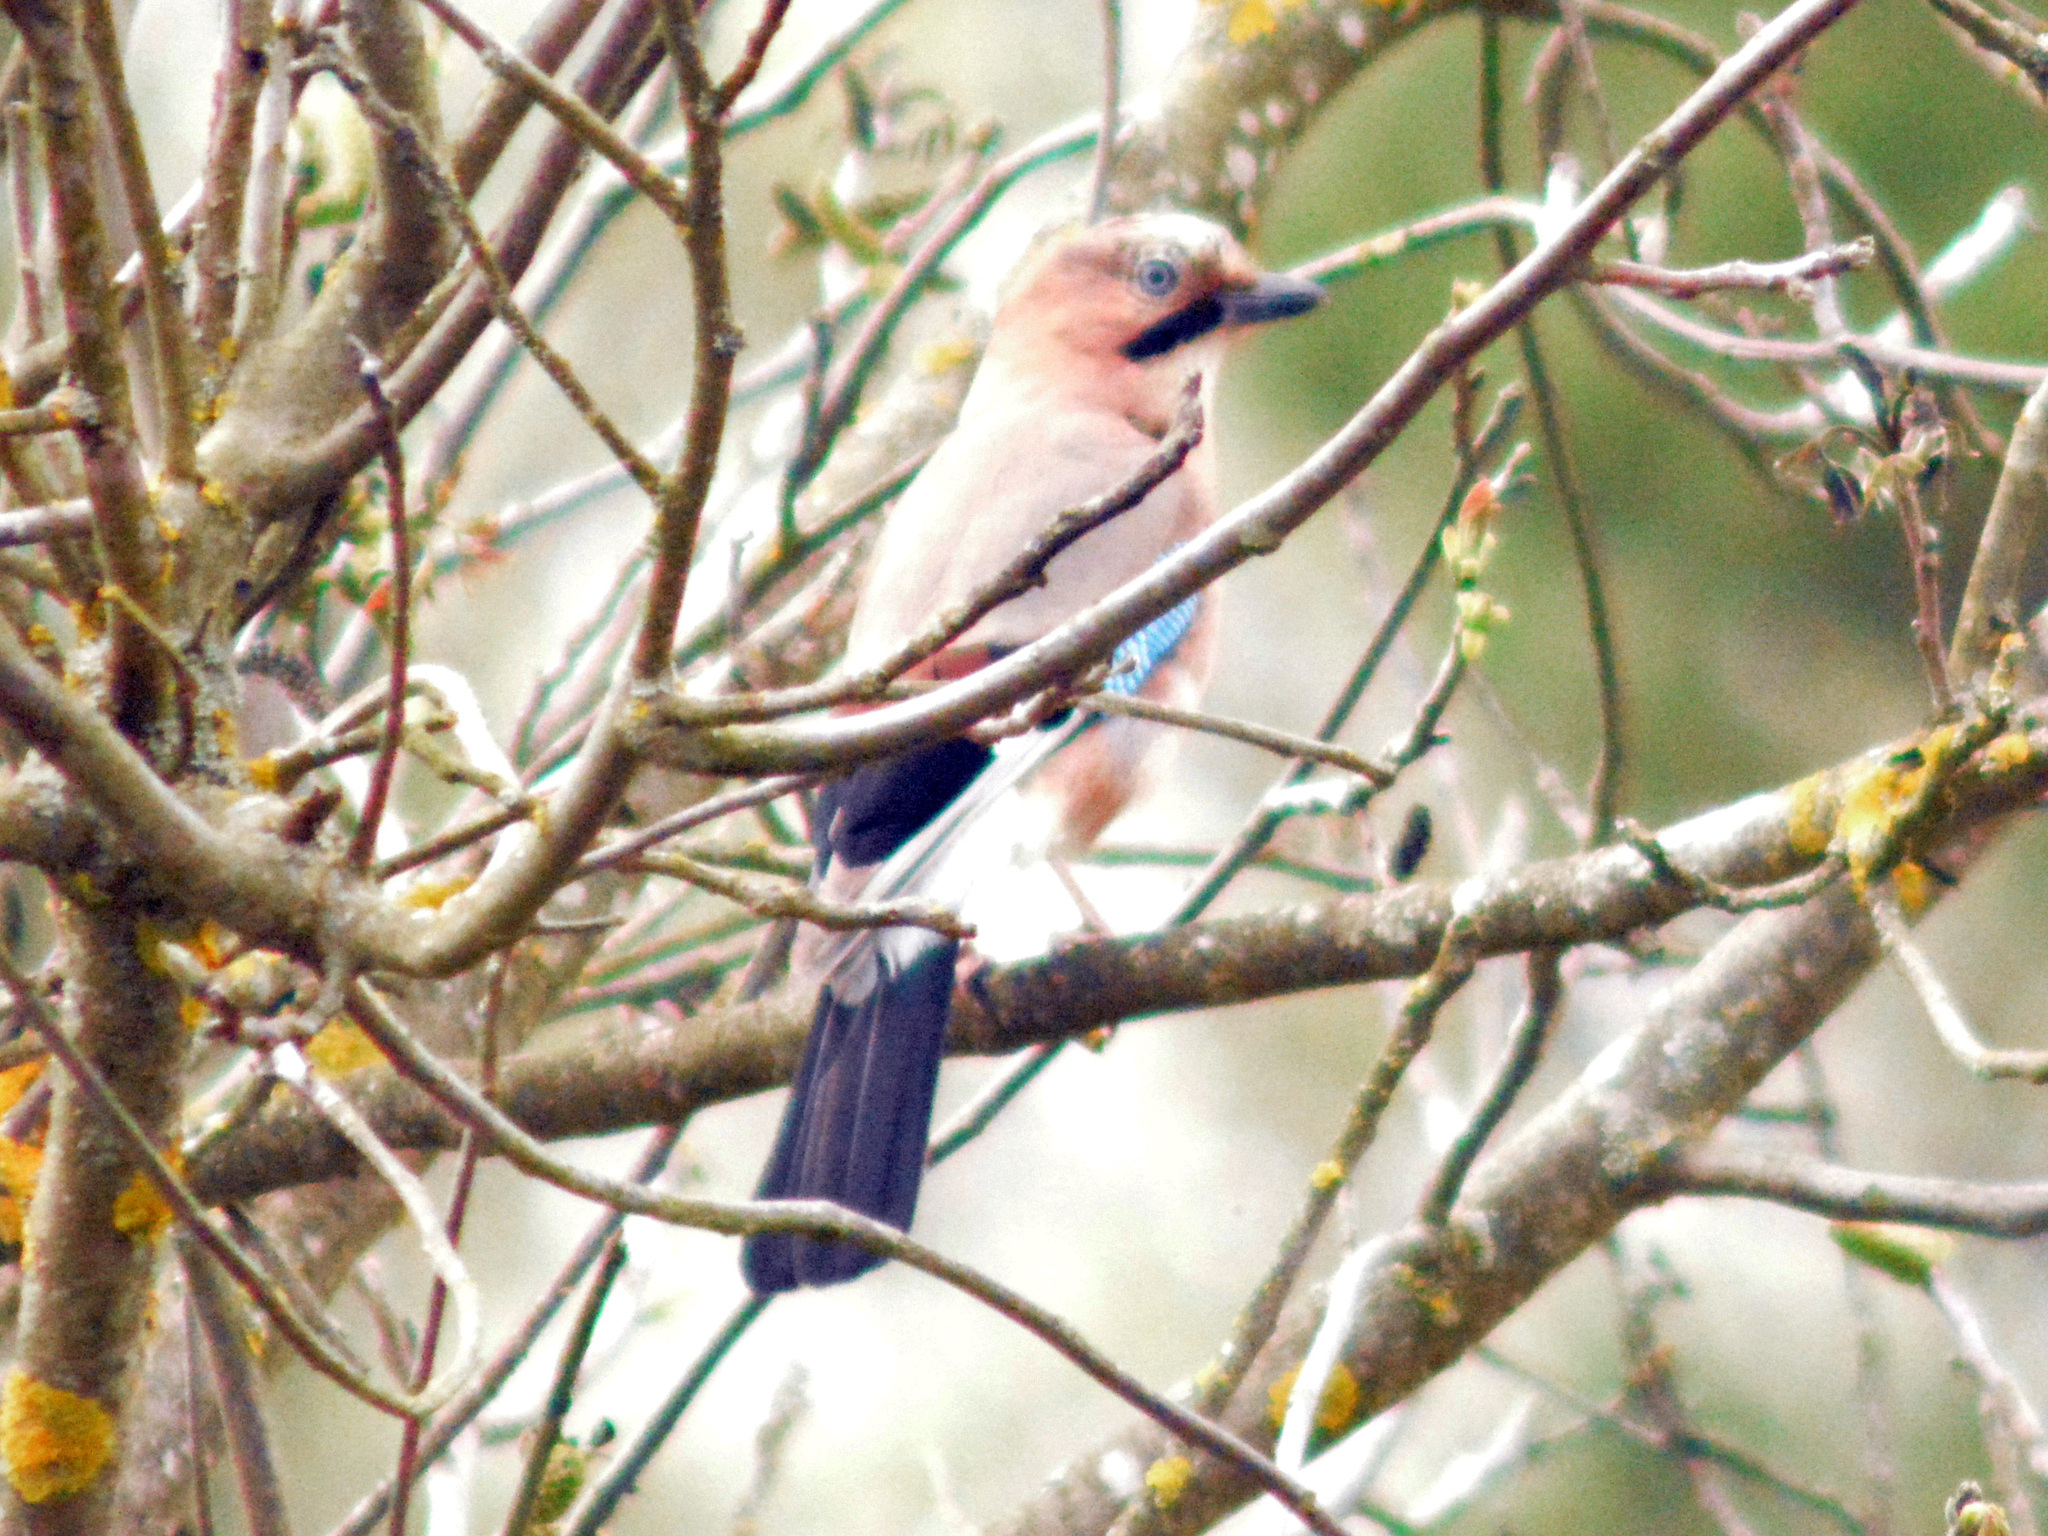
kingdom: Animalia
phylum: Chordata
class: Aves
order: Passeriformes
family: Corvidae
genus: Garrulus
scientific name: Garrulus glandarius
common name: Eurasian jay
